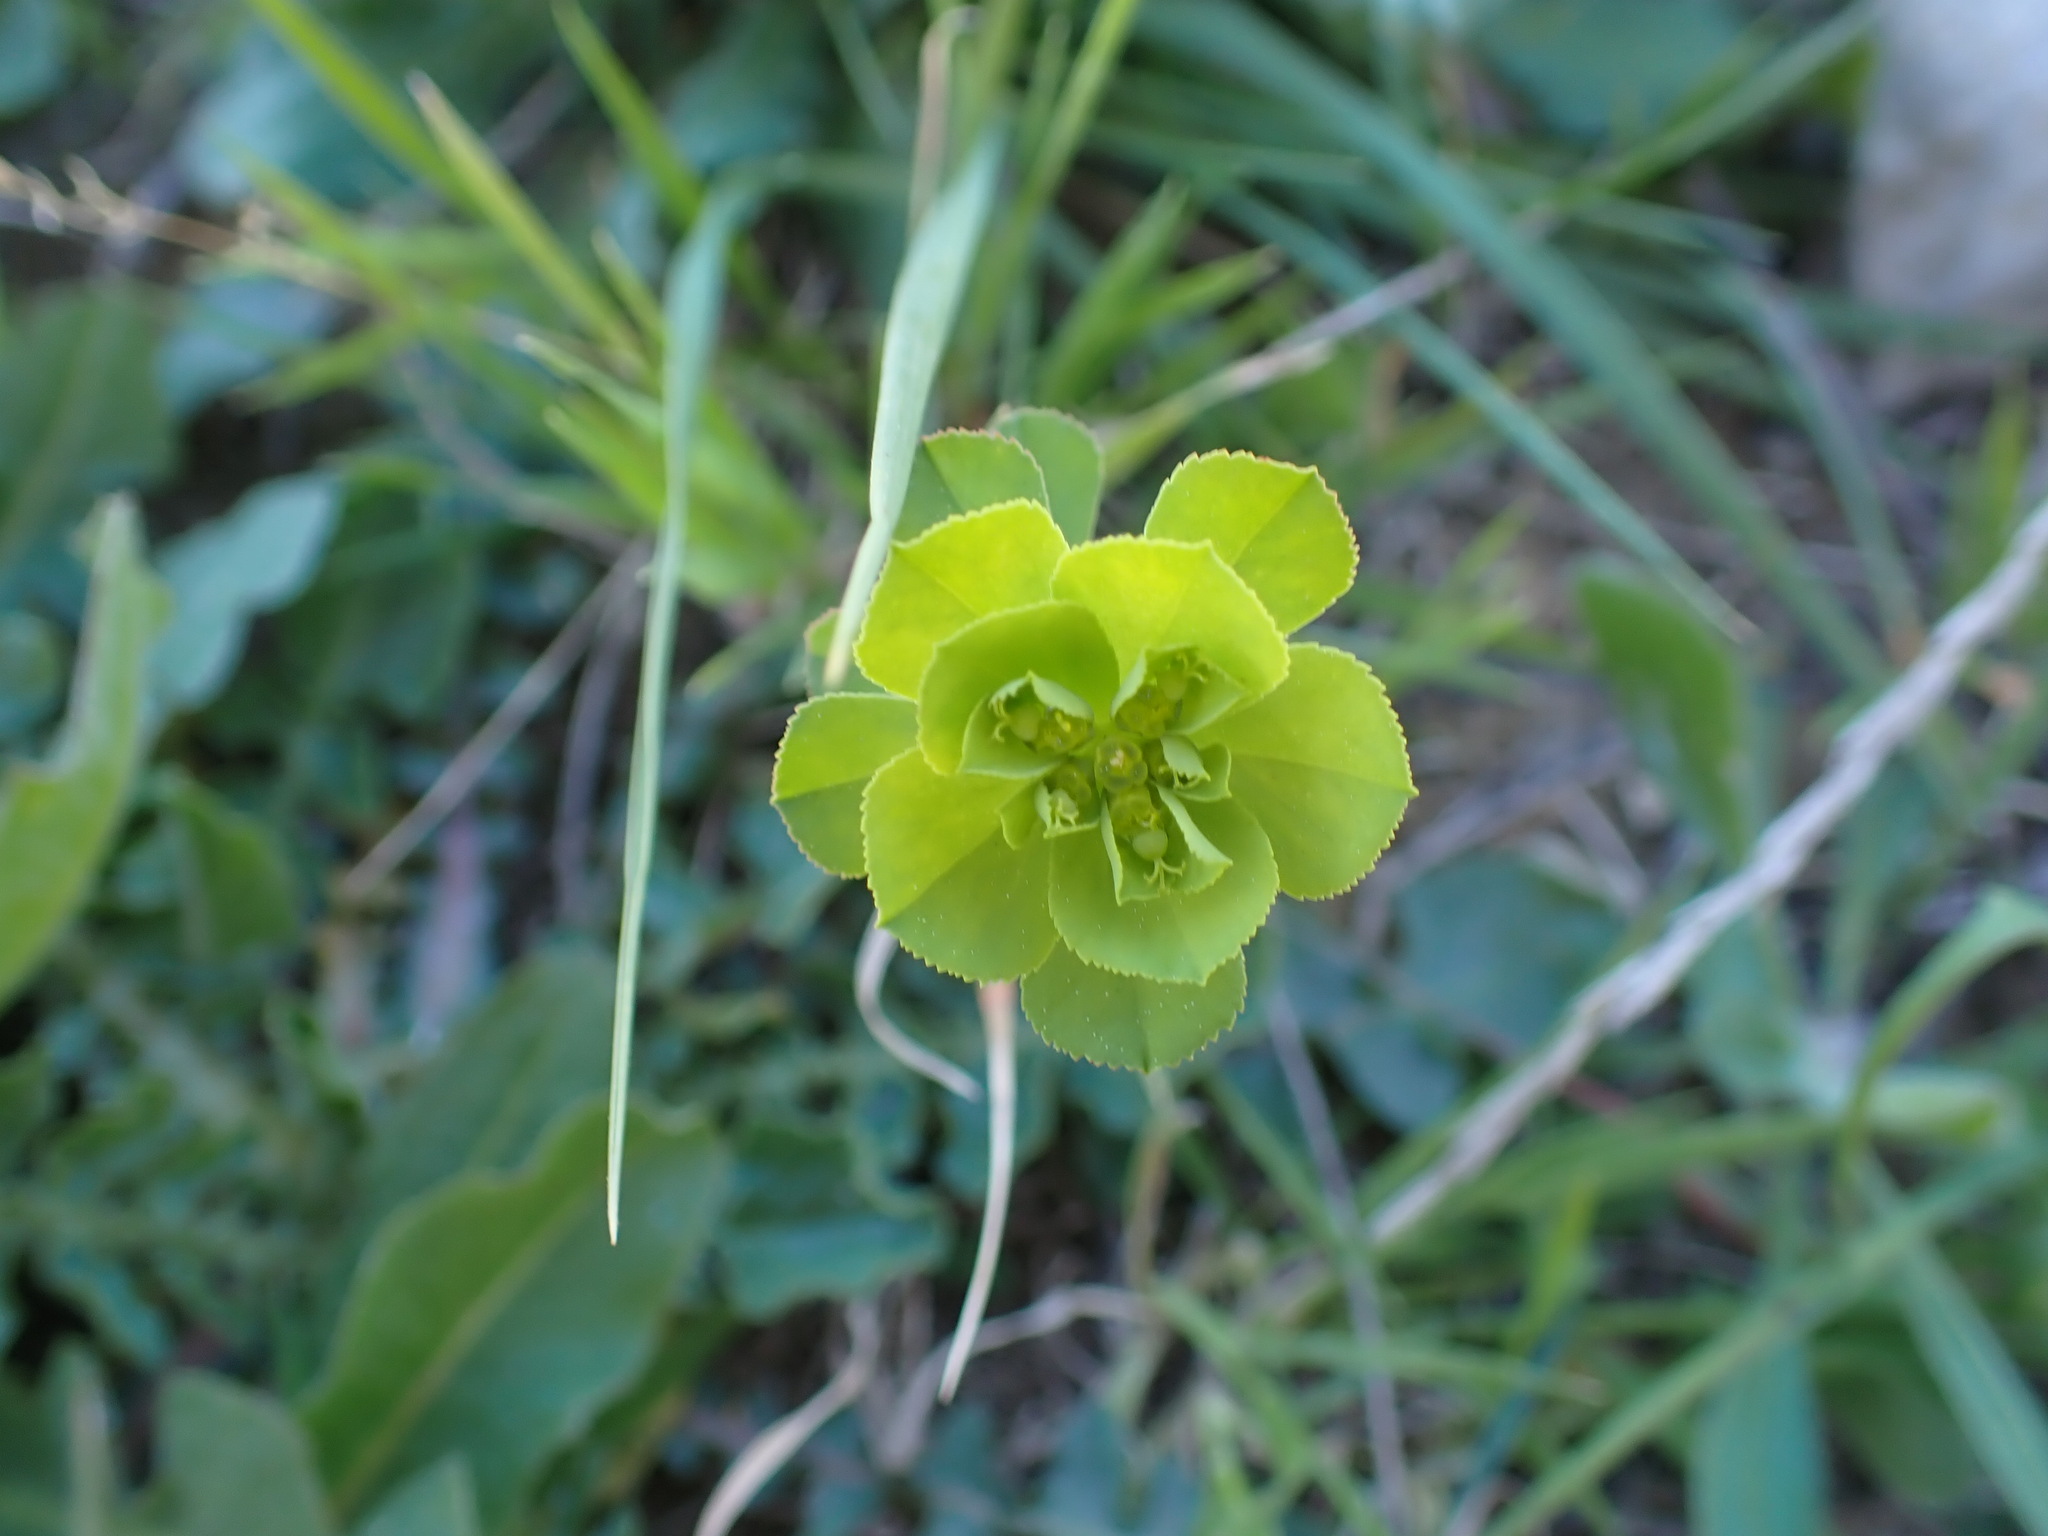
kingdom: Plantae
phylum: Tracheophyta
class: Magnoliopsida
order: Malpighiales
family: Euphorbiaceae
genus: Euphorbia
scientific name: Euphorbia helioscopia
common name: Sun spurge
